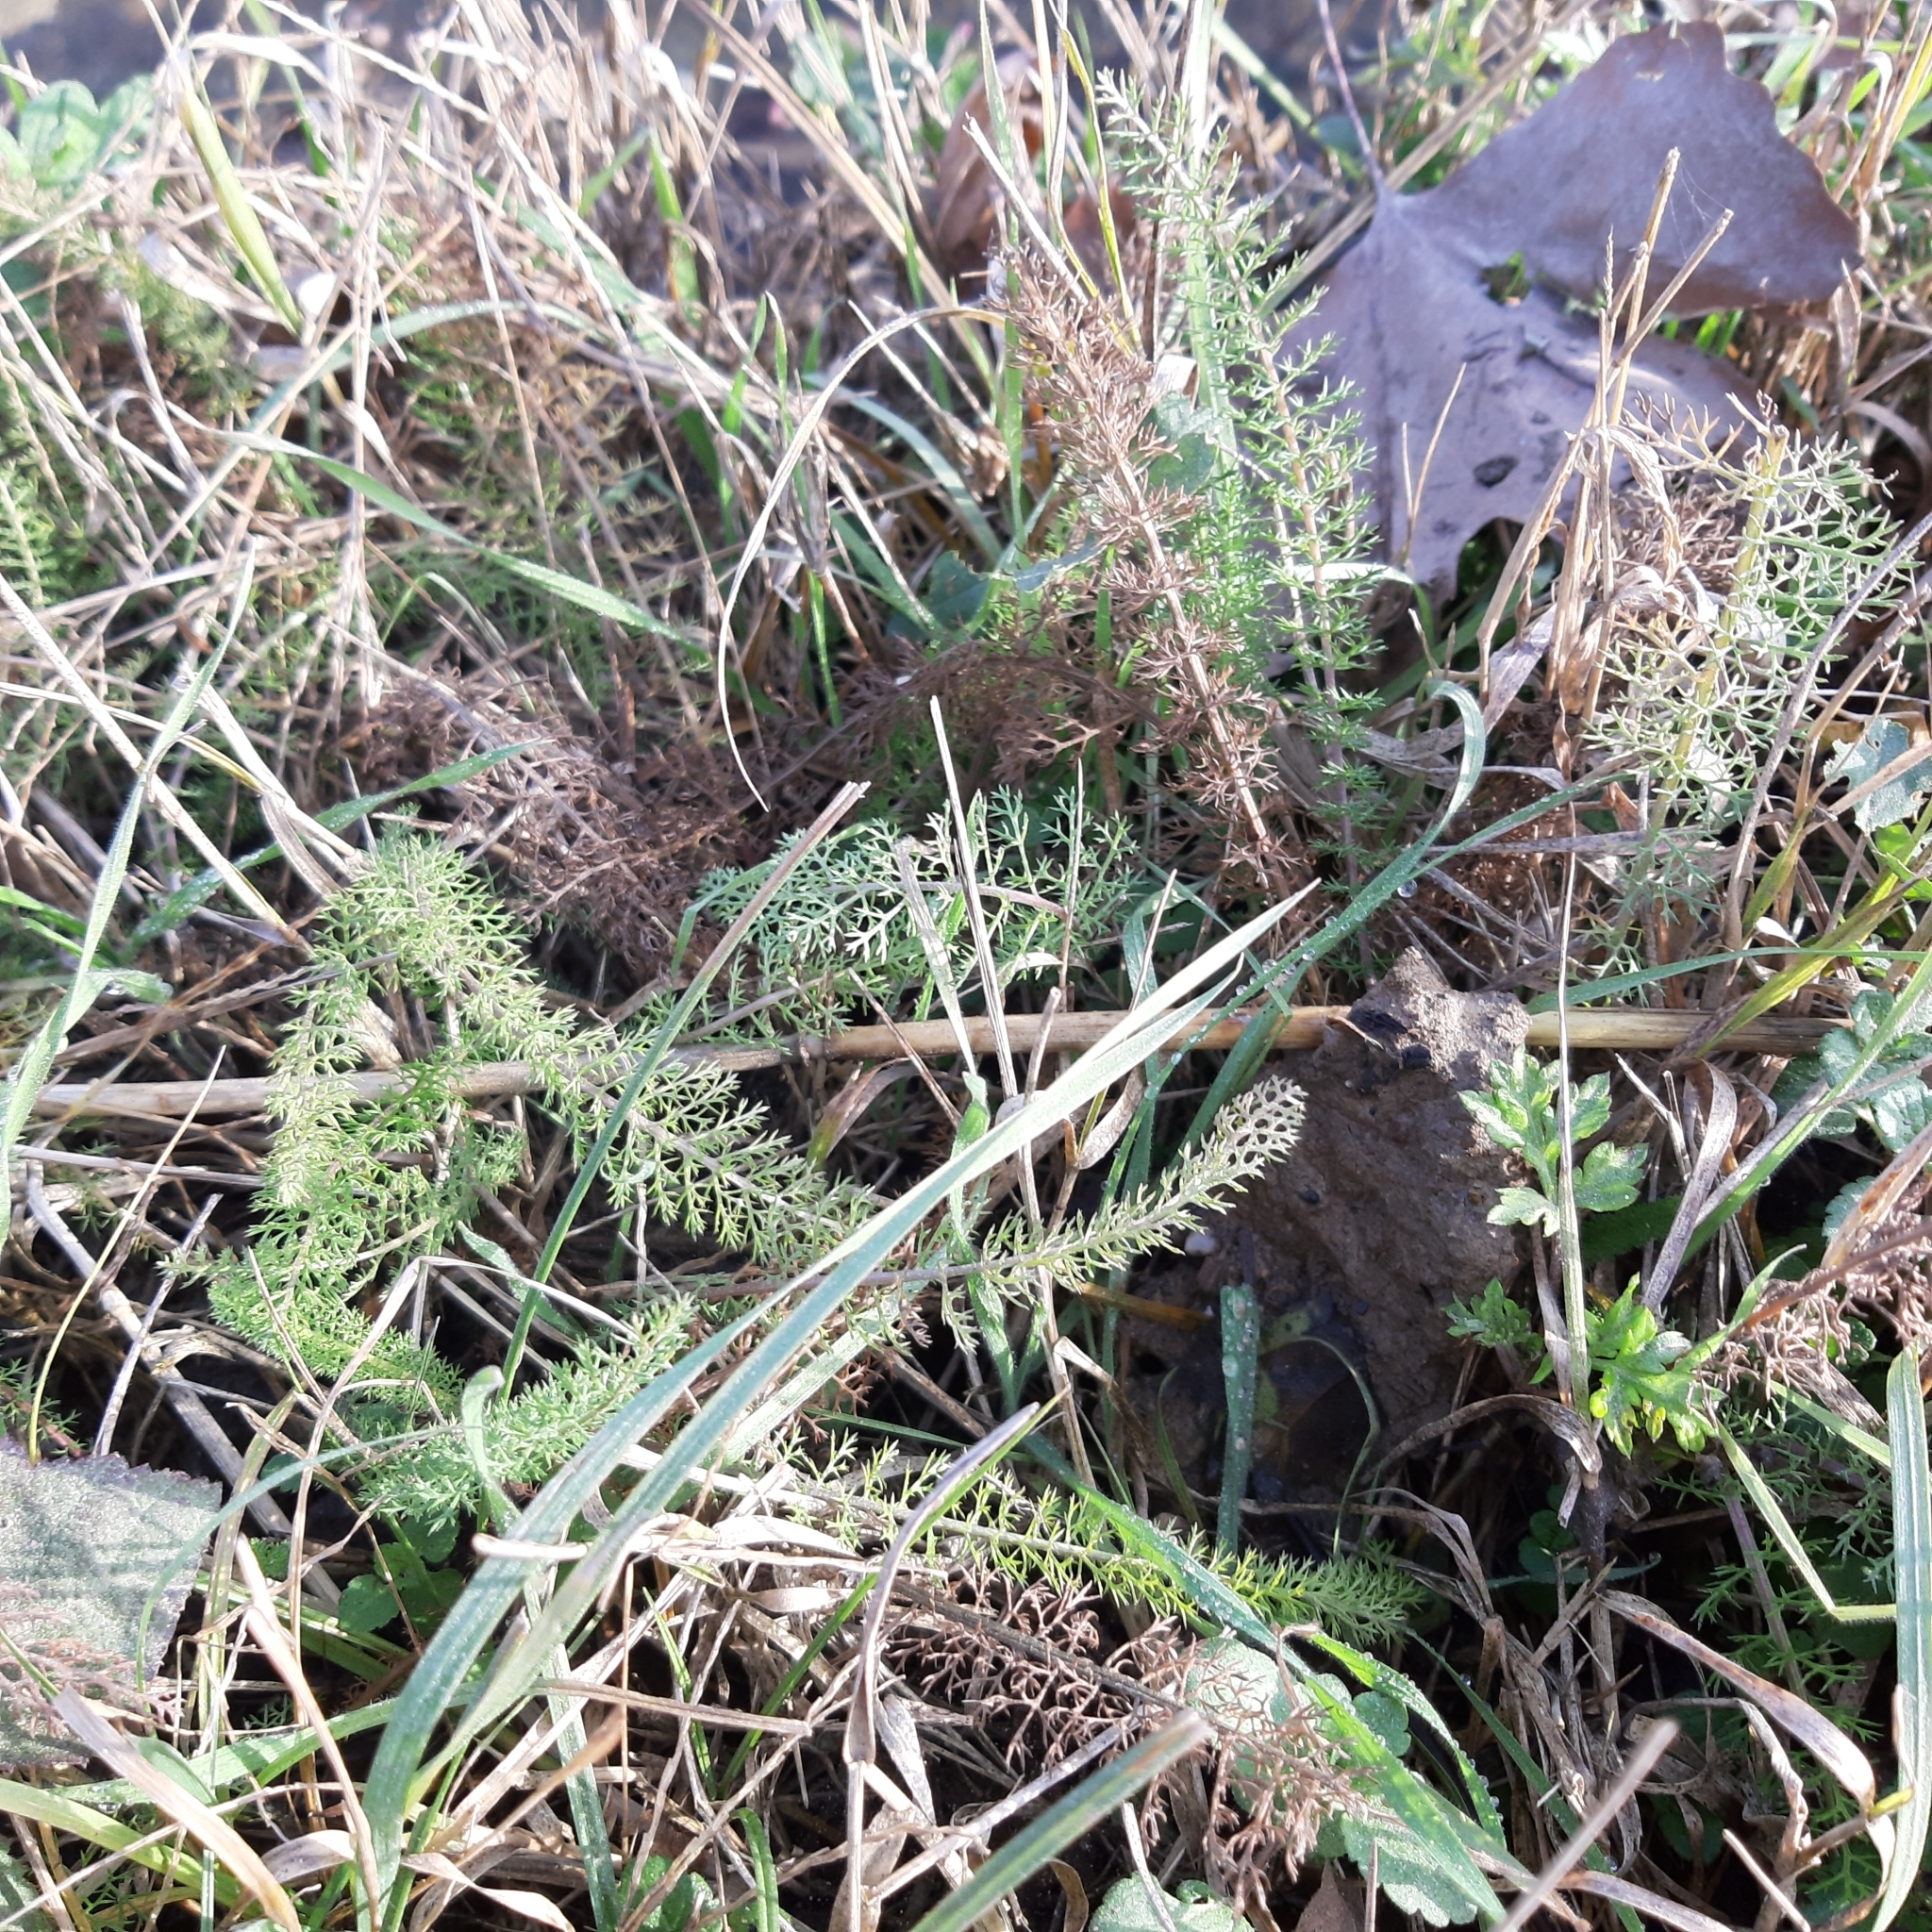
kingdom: Plantae
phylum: Tracheophyta
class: Magnoliopsida
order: Asterales
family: Asteraceae
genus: Achillea
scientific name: Achillea millefolium
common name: Yarrow
